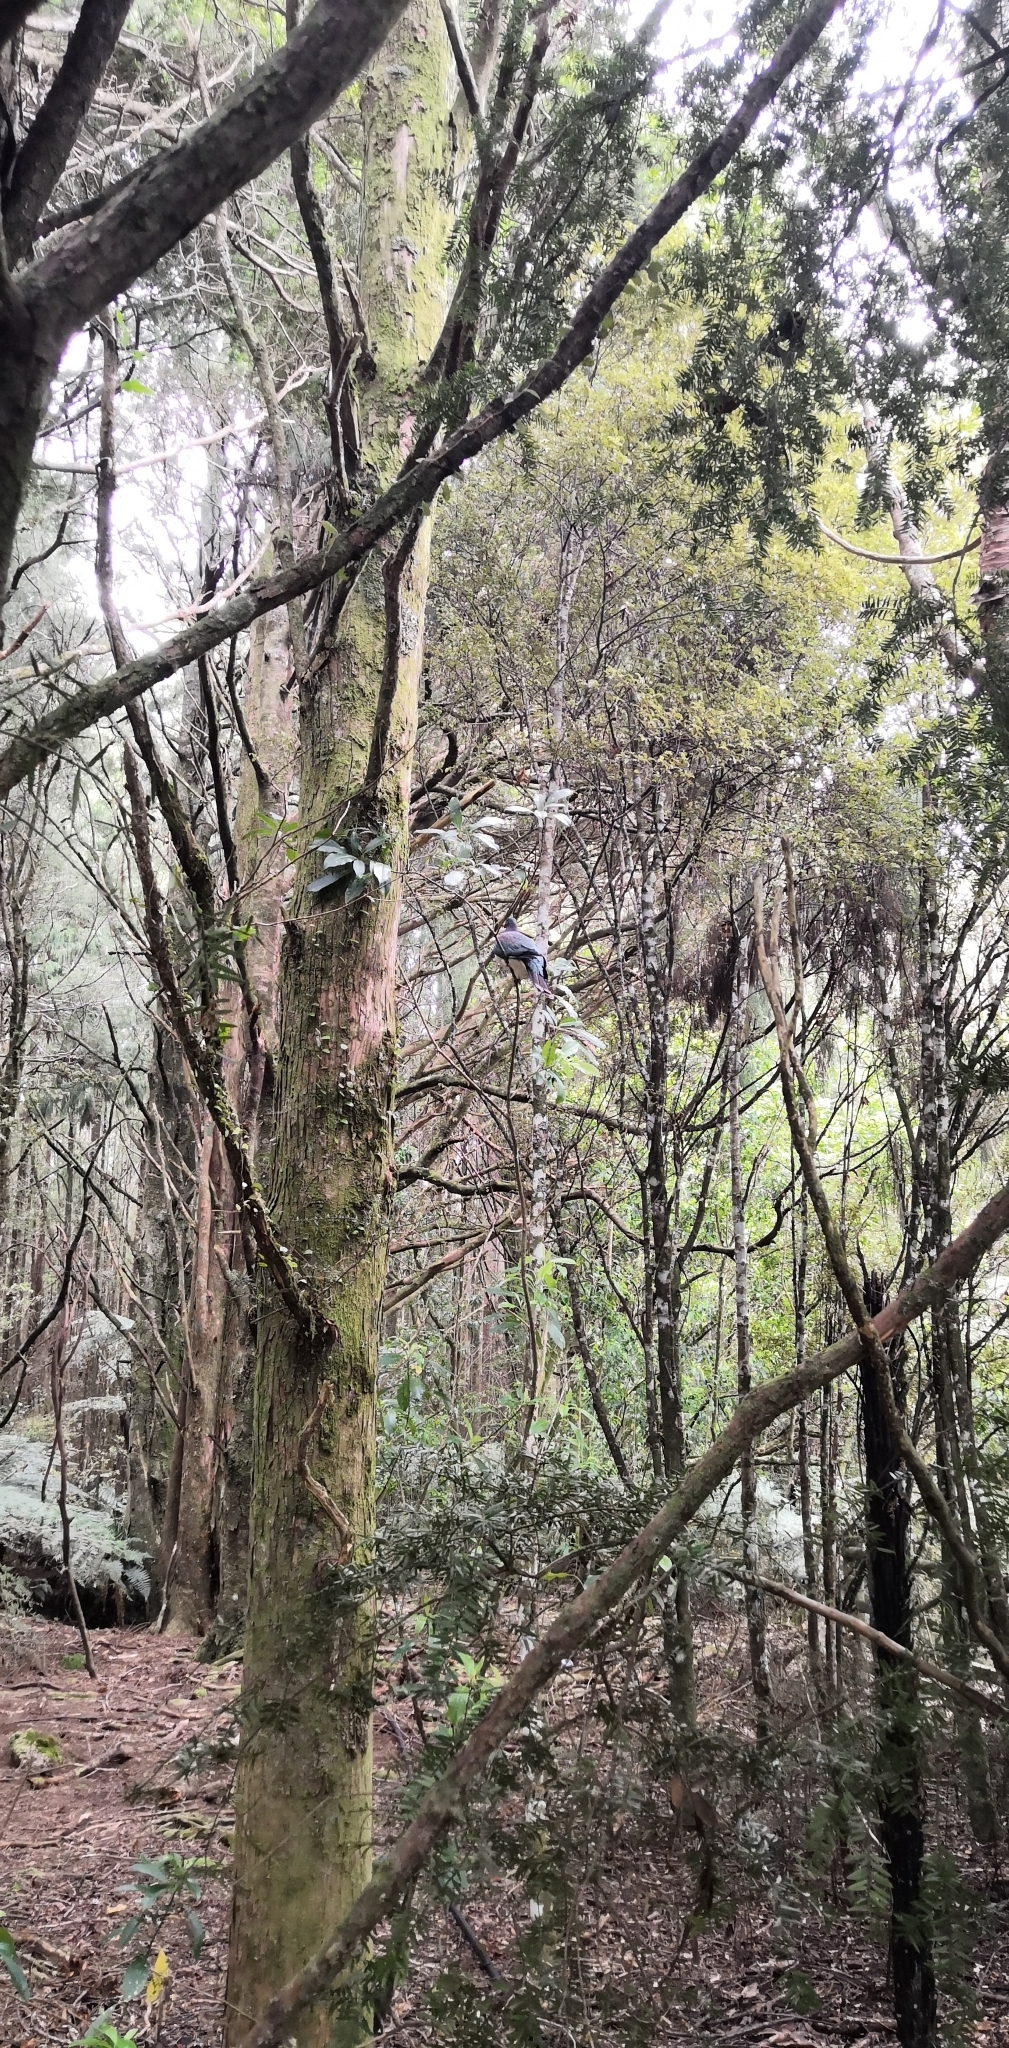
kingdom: Animalia
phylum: Chordata
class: Aves
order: Columbiformes
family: Columbidae
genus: Hemiphaga
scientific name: Hemiphaga novaeseelandiae
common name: New zealand pigeon
